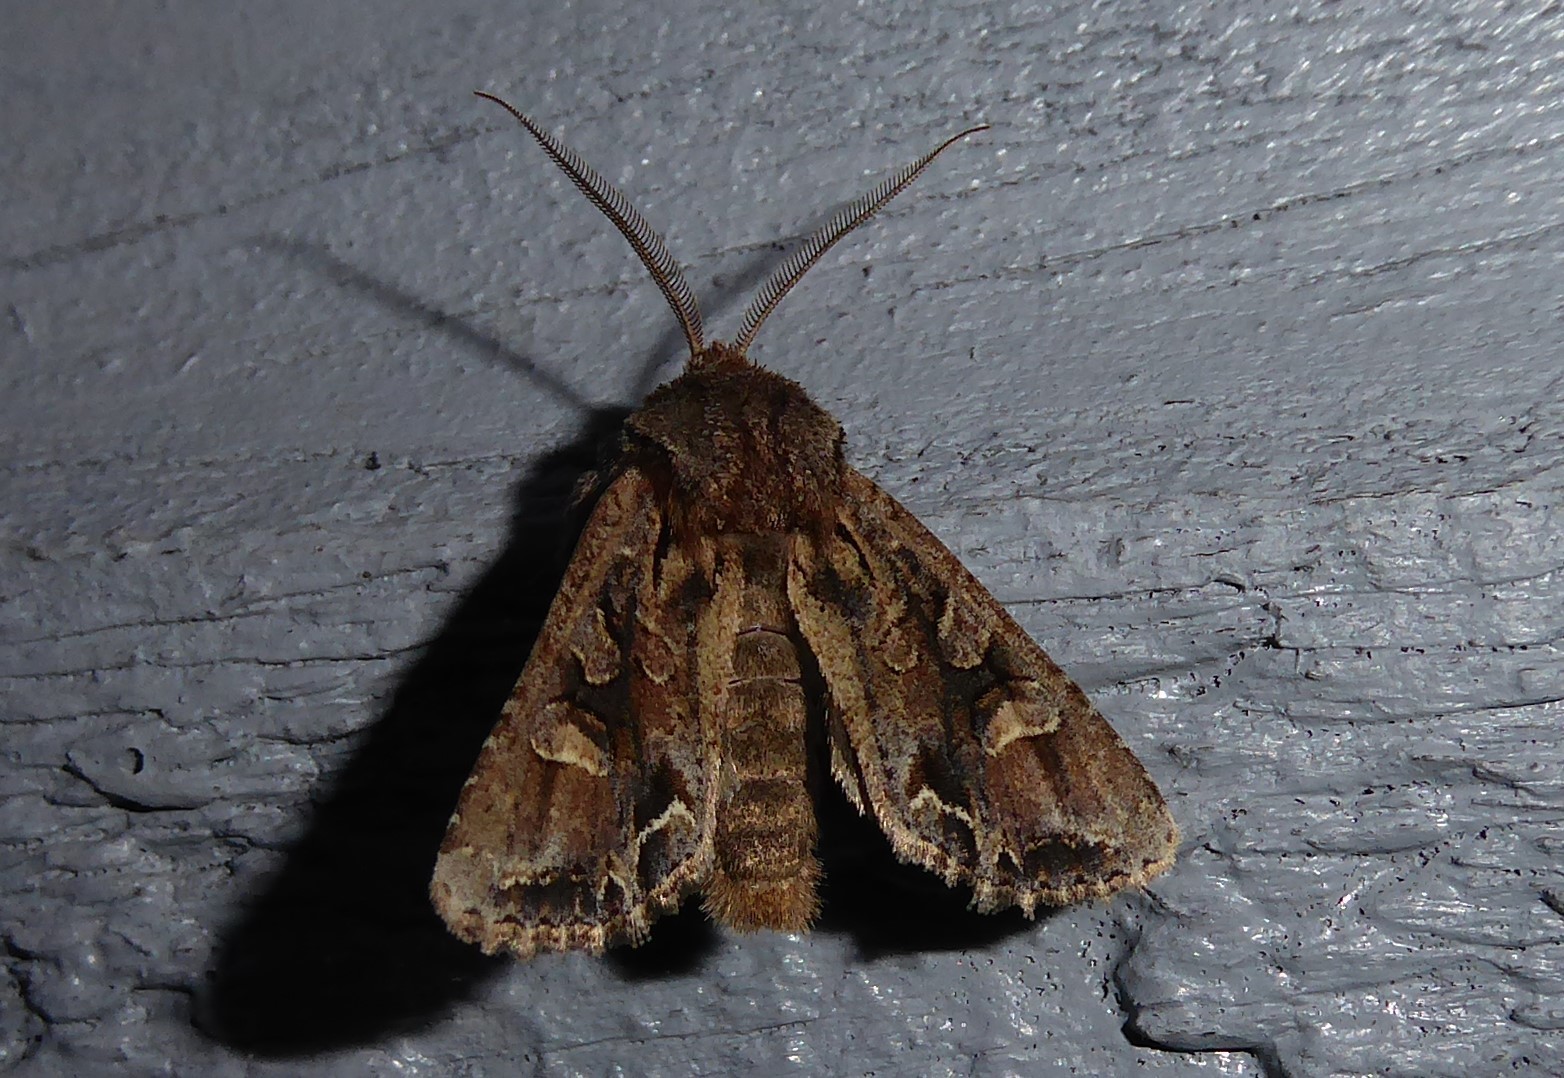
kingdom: Animalia
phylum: Arthropoda
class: Insecta
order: Lepidoptera
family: Noctuidae
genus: Ichneutica
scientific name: Ichneutica
